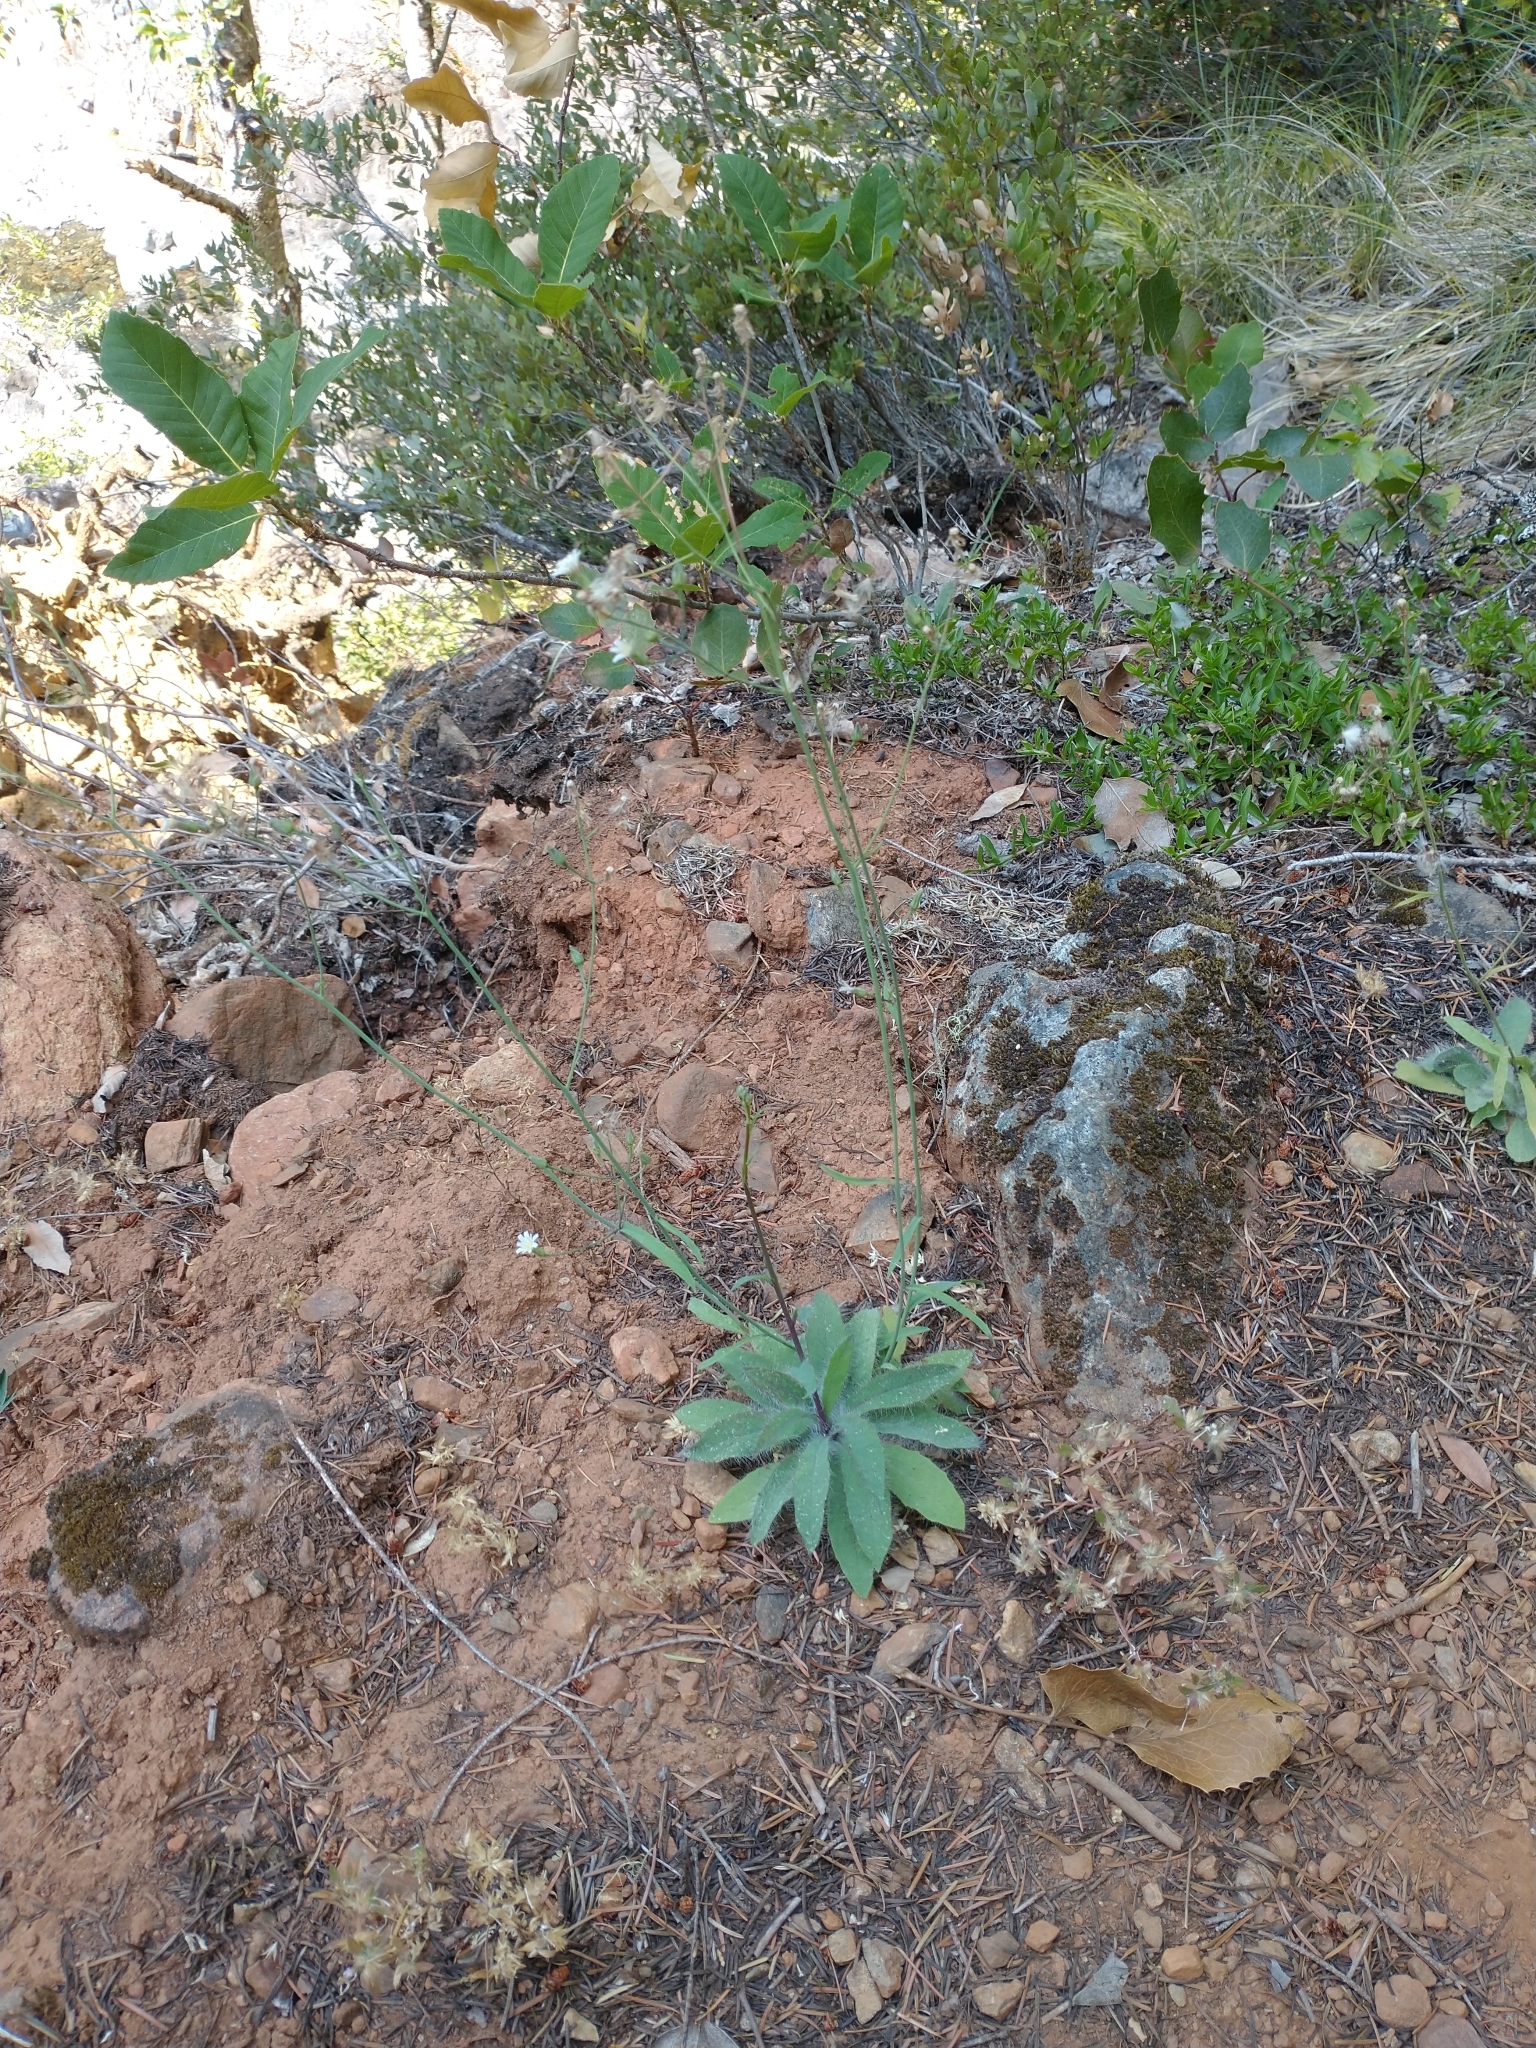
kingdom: Plantae
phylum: Tracheophyta
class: Magnoliopsida
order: Asterales
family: Asteraceae
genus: Hieracium
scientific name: Hieracium albiflorum
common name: White hawkweed
